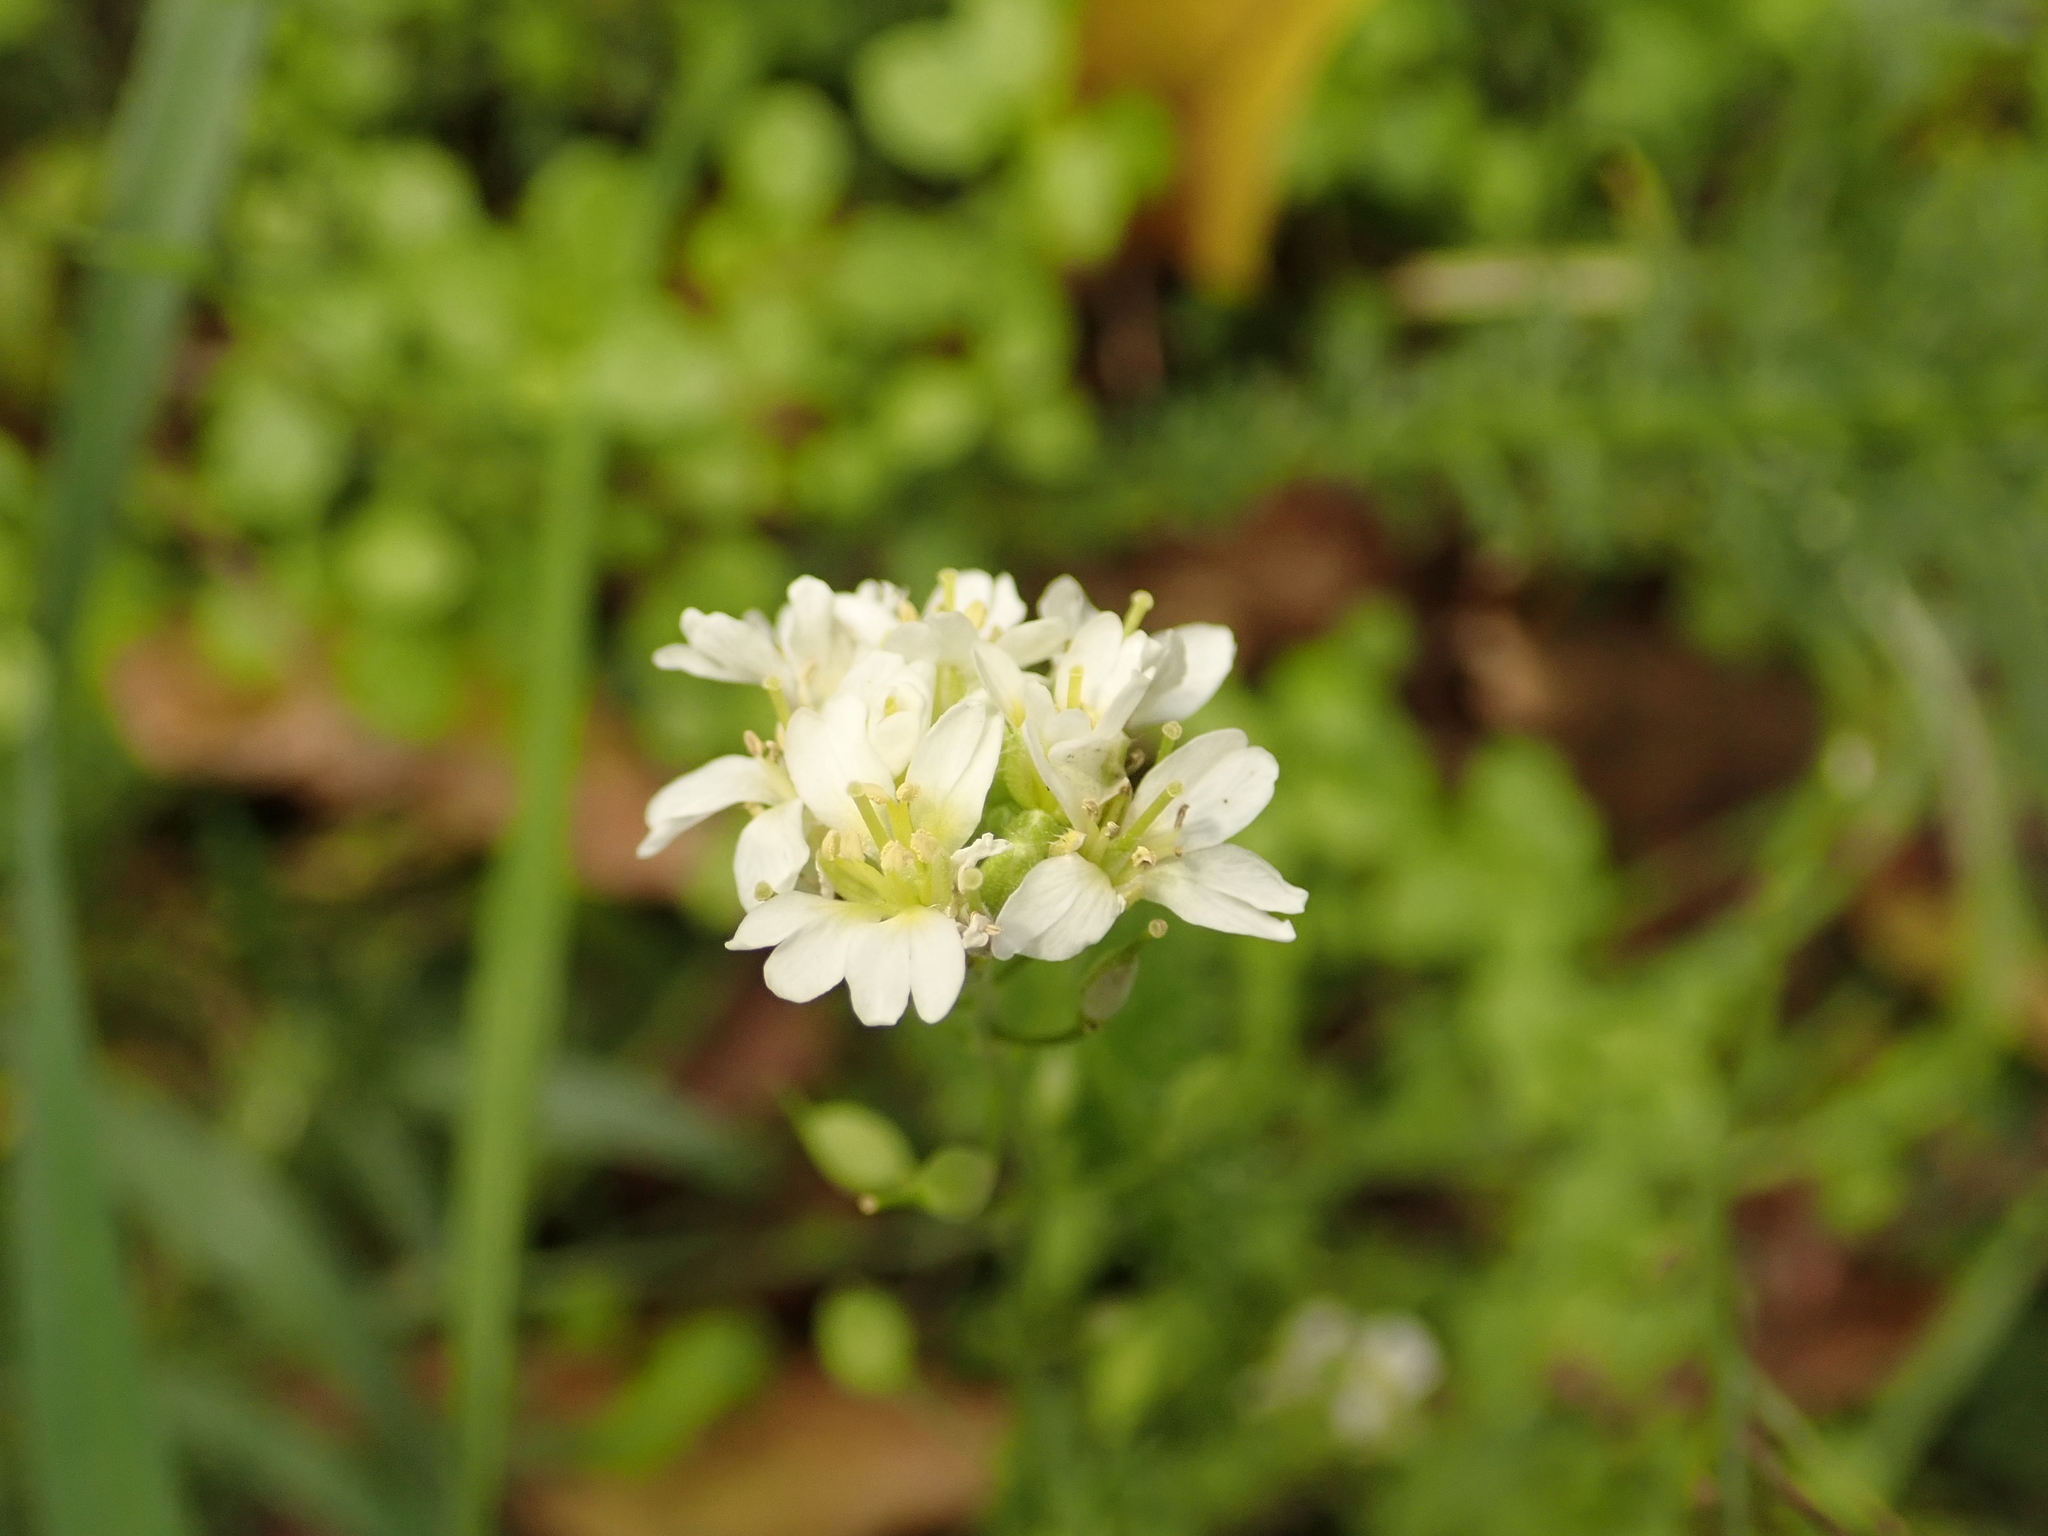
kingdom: Plantae
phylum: Tracheophyta
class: Magnoliopsida
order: Brassicales
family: Brassicaceae
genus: Berteroa
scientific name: Berteroa incana
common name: Hoary alison
